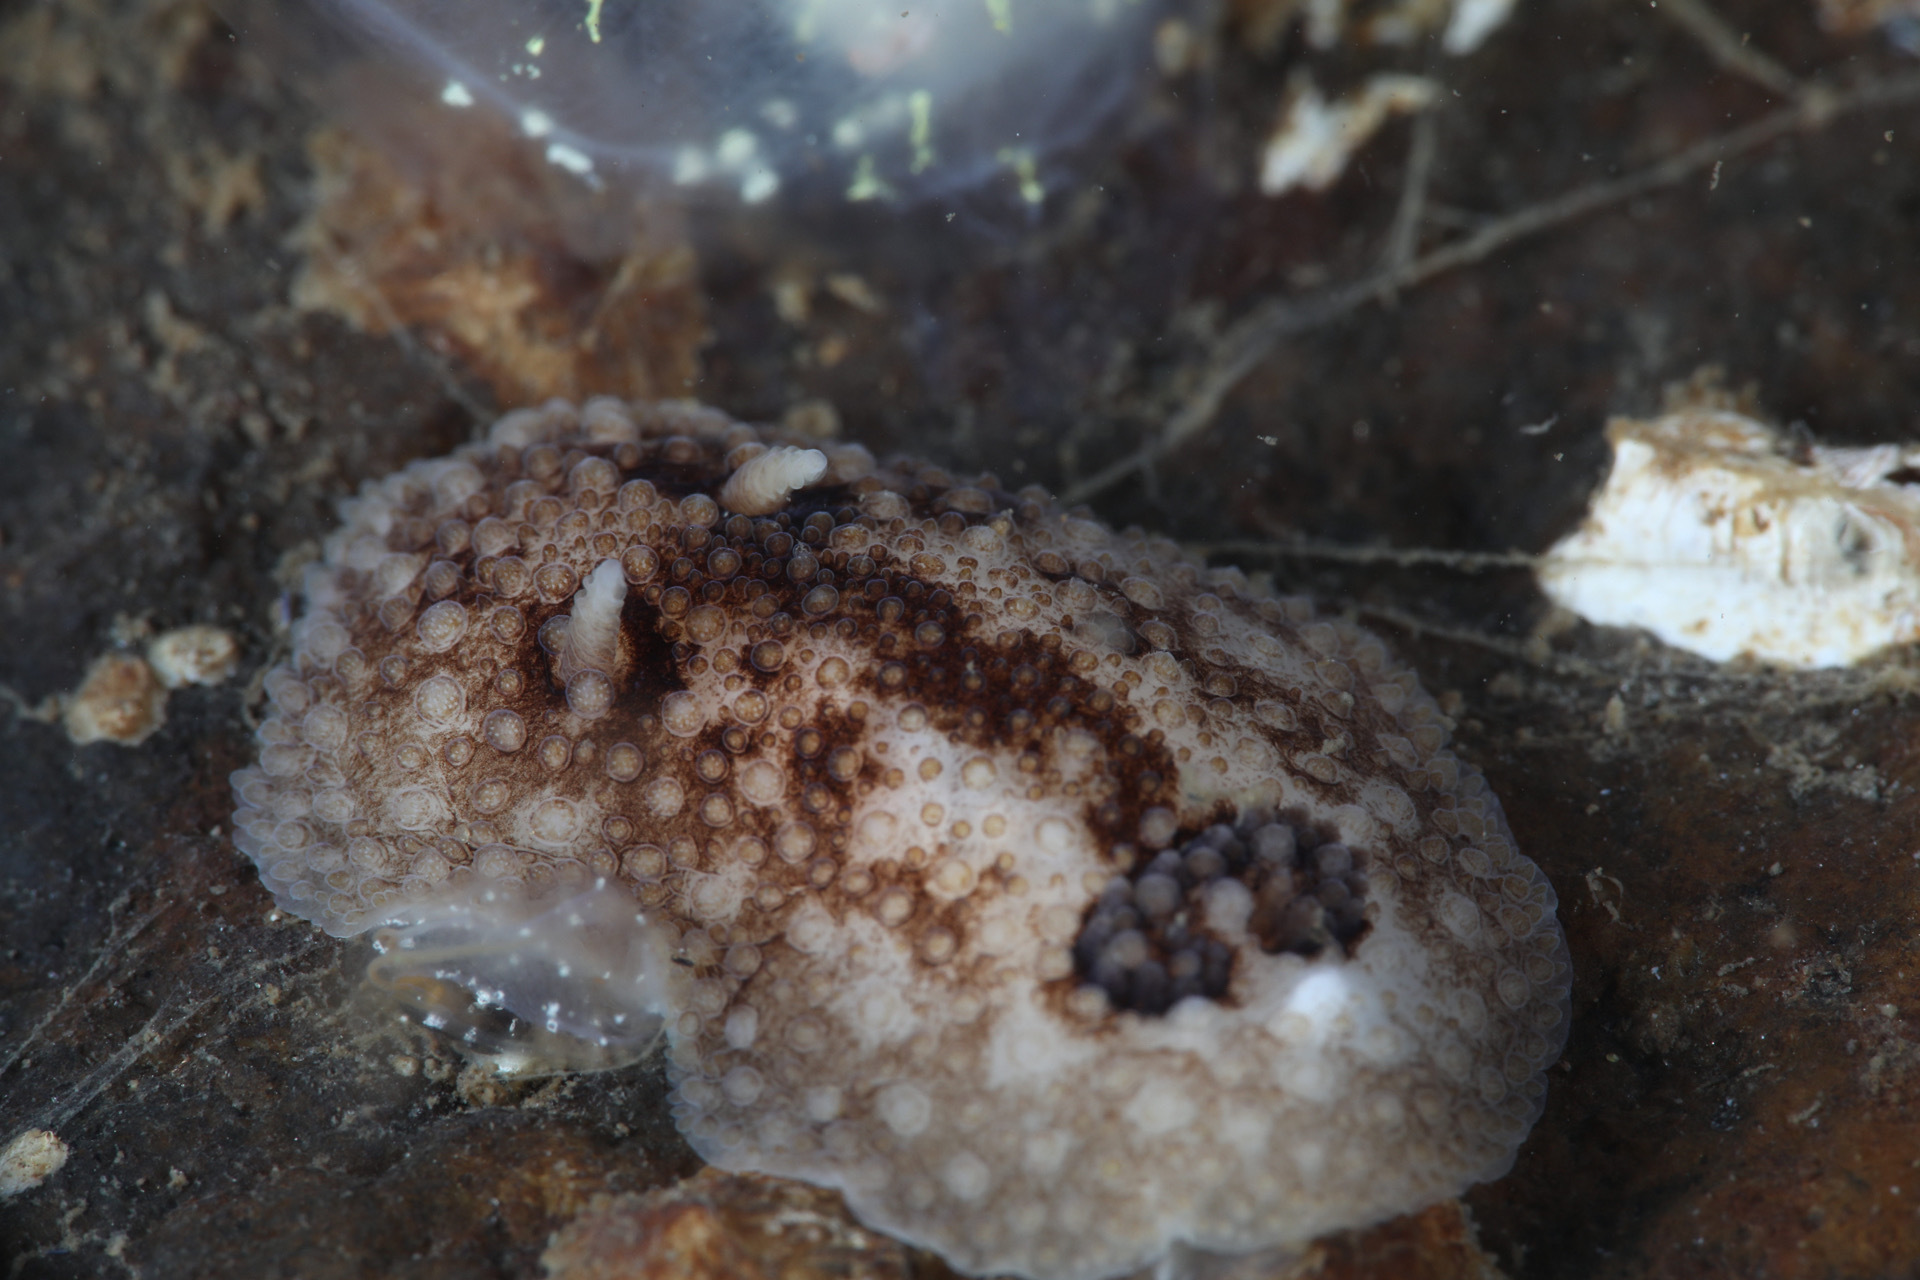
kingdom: Animalia
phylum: Mollusca
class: Gastropoda
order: Nudibranchia
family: Onchidorididae
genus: Onchidoris
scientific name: Onchidoris bilamellata
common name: Barnacle-eating onchidoris
